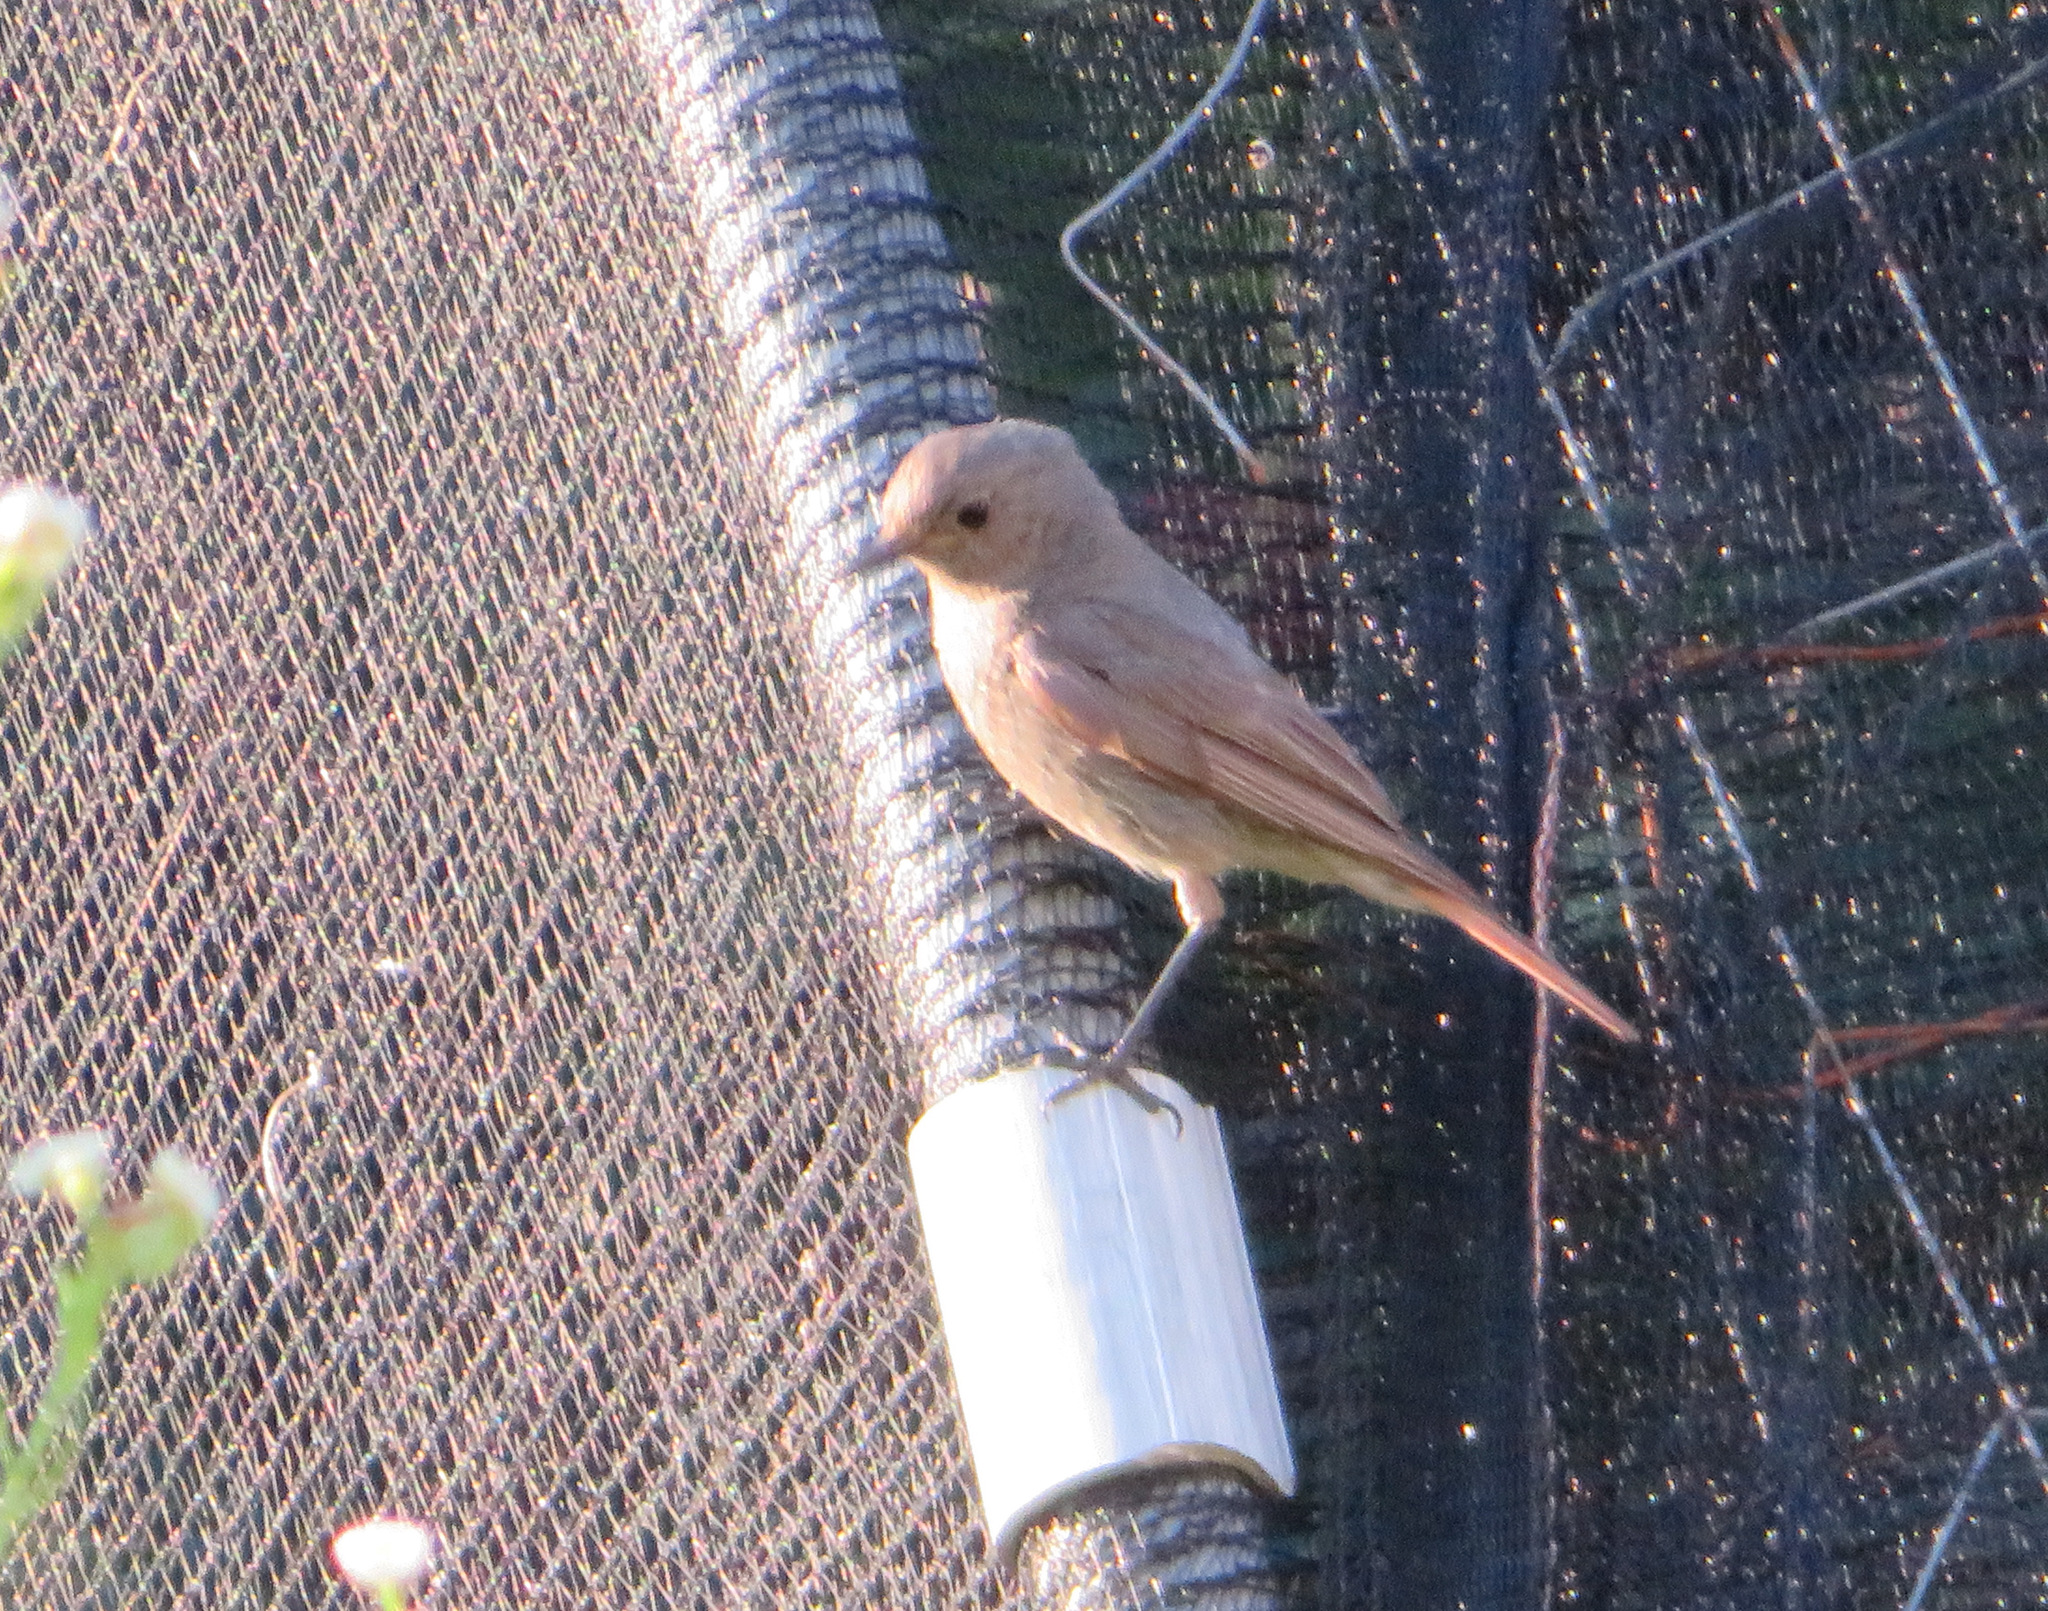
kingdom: Animalia
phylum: Chordata
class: Aves
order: Passeriformes
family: Muscicapidae
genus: Phoenicurus
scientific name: Phoenicurus ochruros
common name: Black redstart
